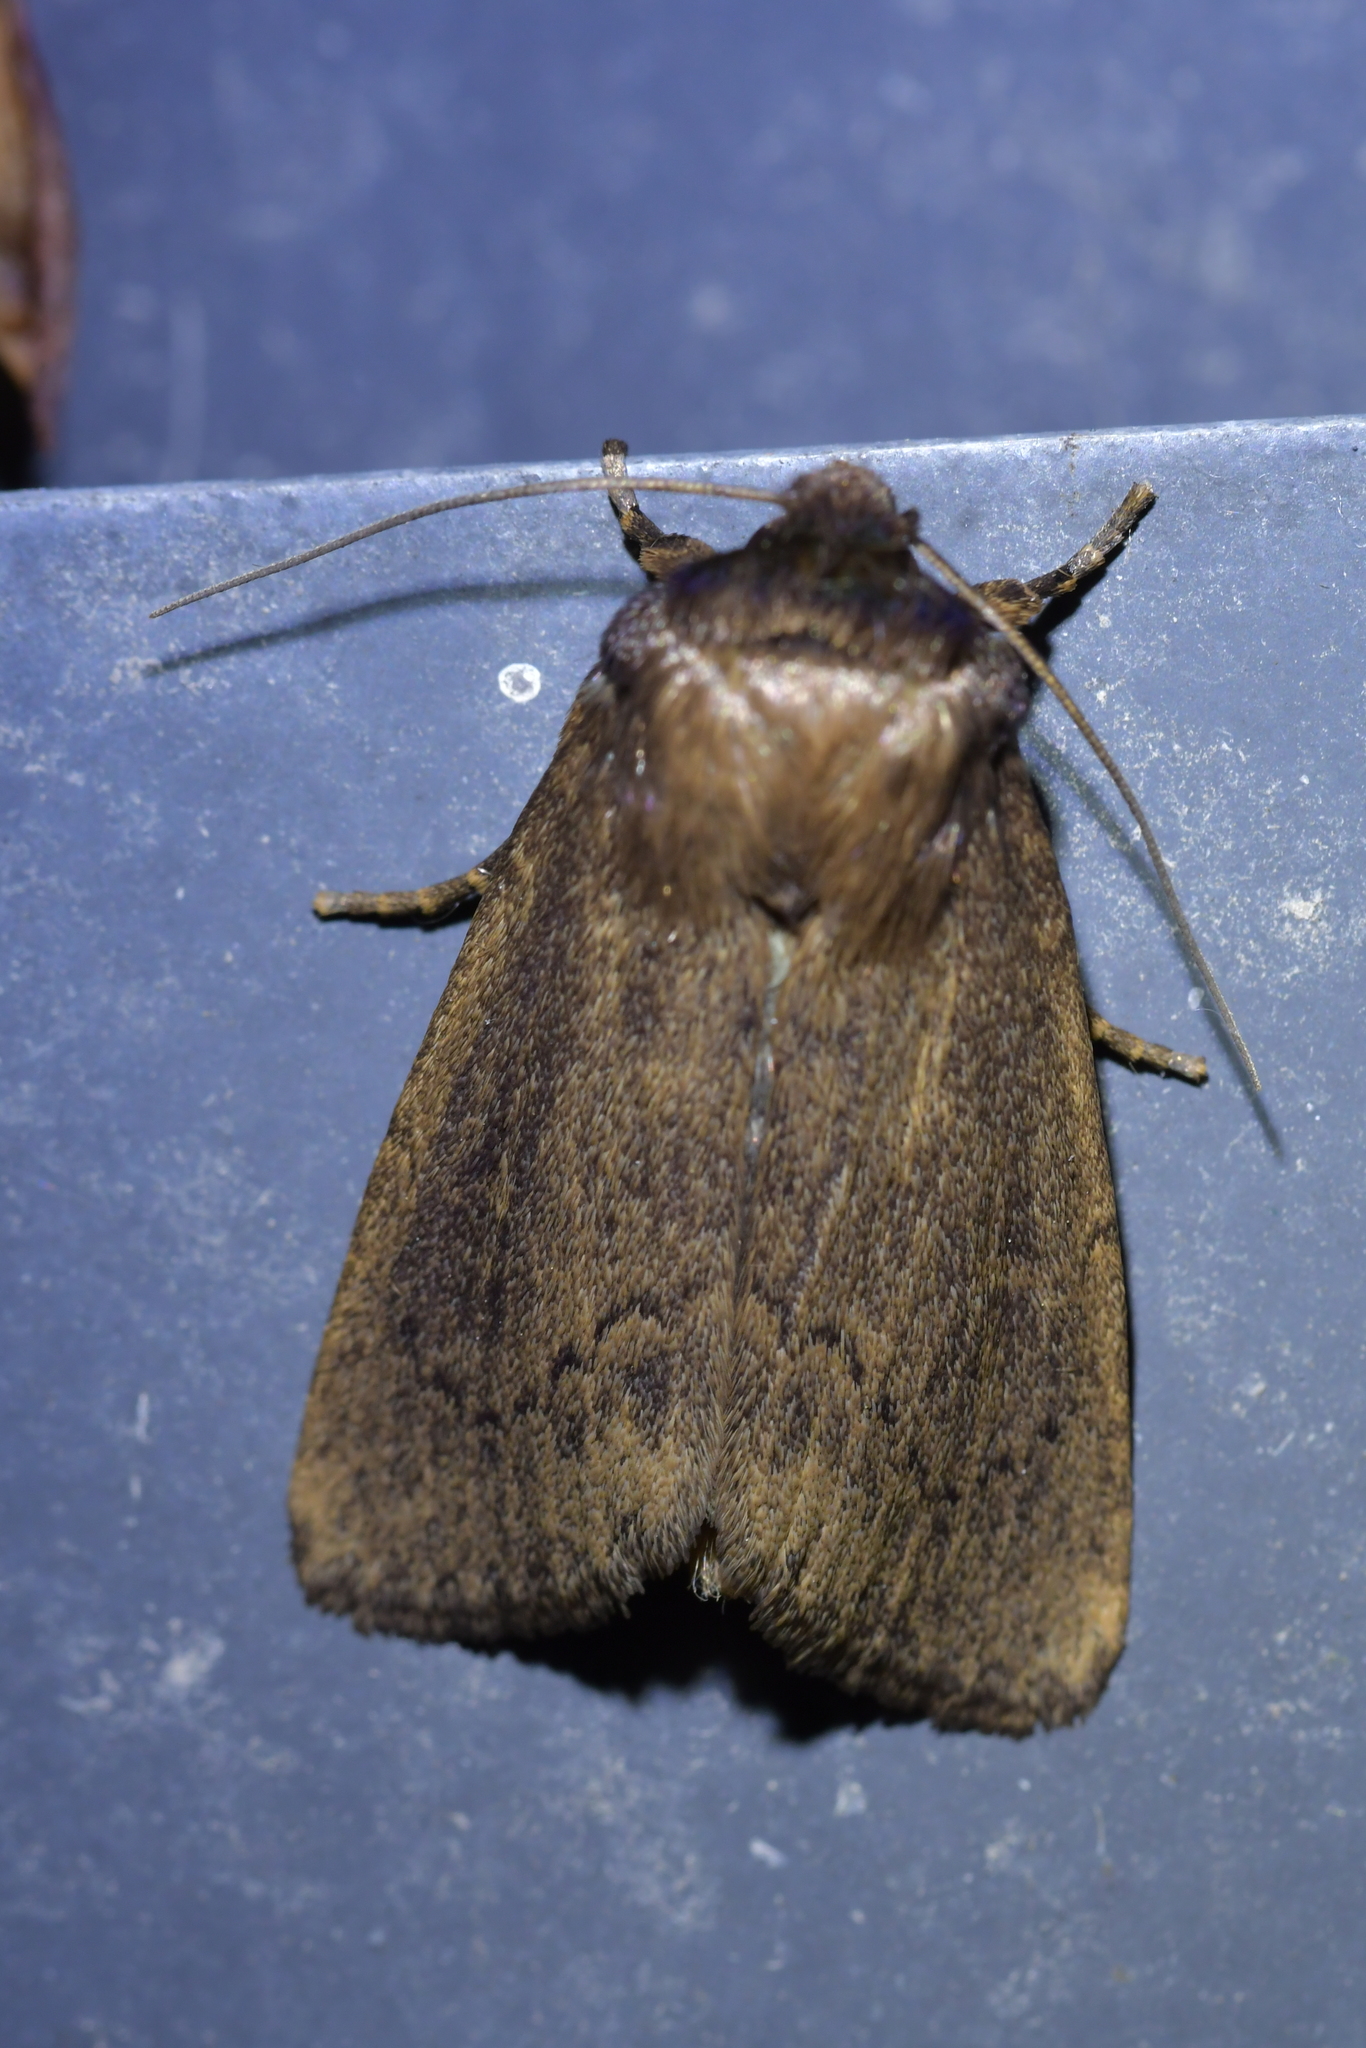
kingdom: Animalia
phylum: Arthropoda
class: Insecta
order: Lepidoptera
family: Noctuidae
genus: Bityla
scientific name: Bityla defigurata
